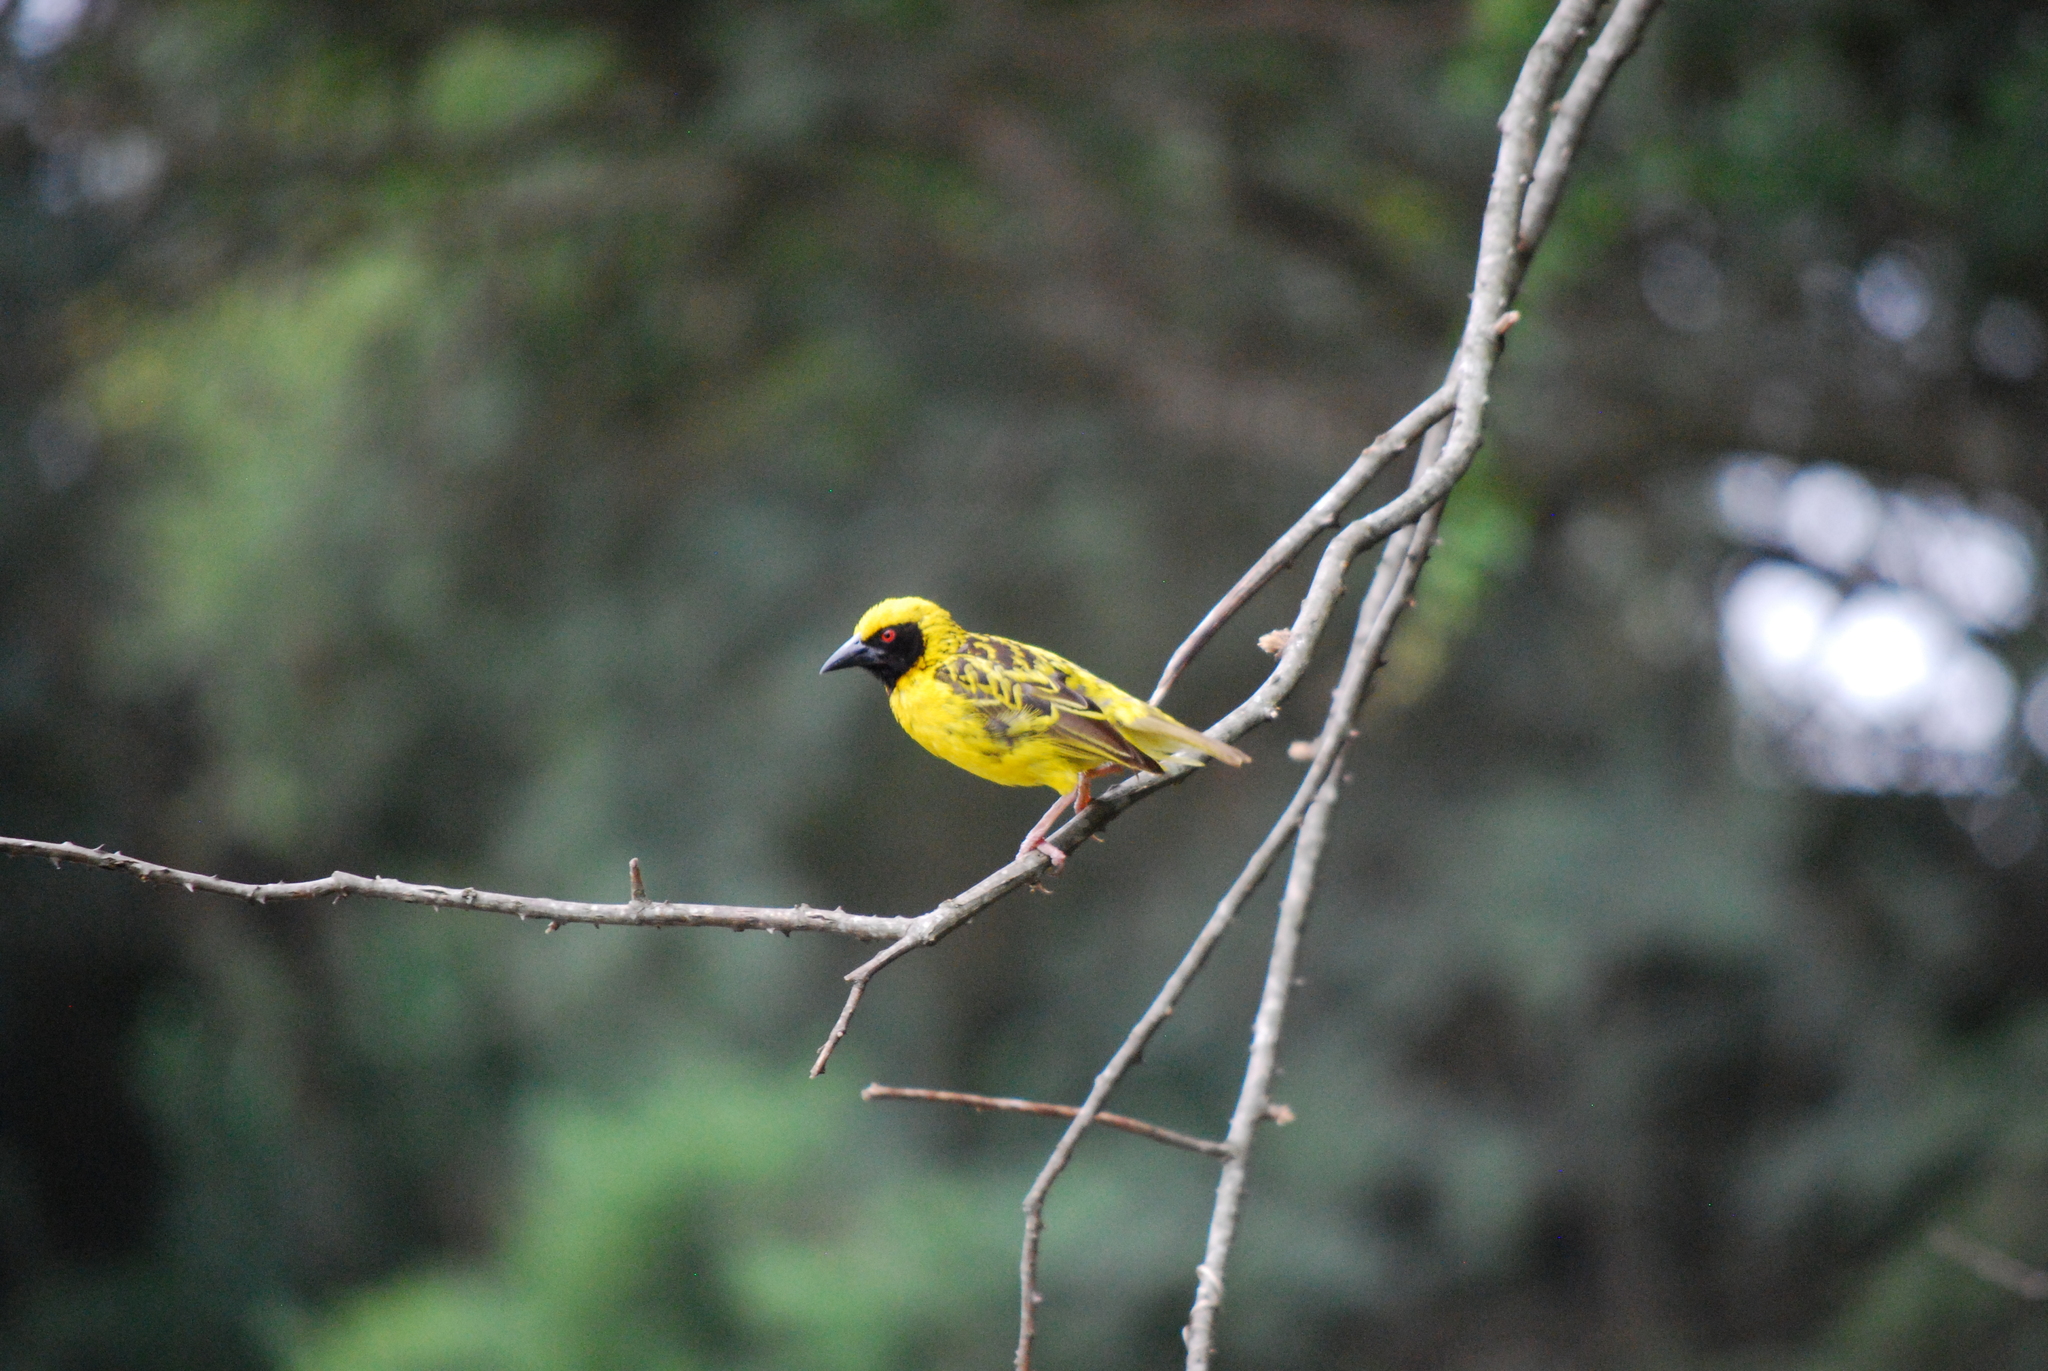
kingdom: Animalia
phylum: Chordata
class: Aves
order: Passeriformes
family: Ploceidae
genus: Ploceus
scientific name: Ploceus cucullatus
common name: Village weaver
